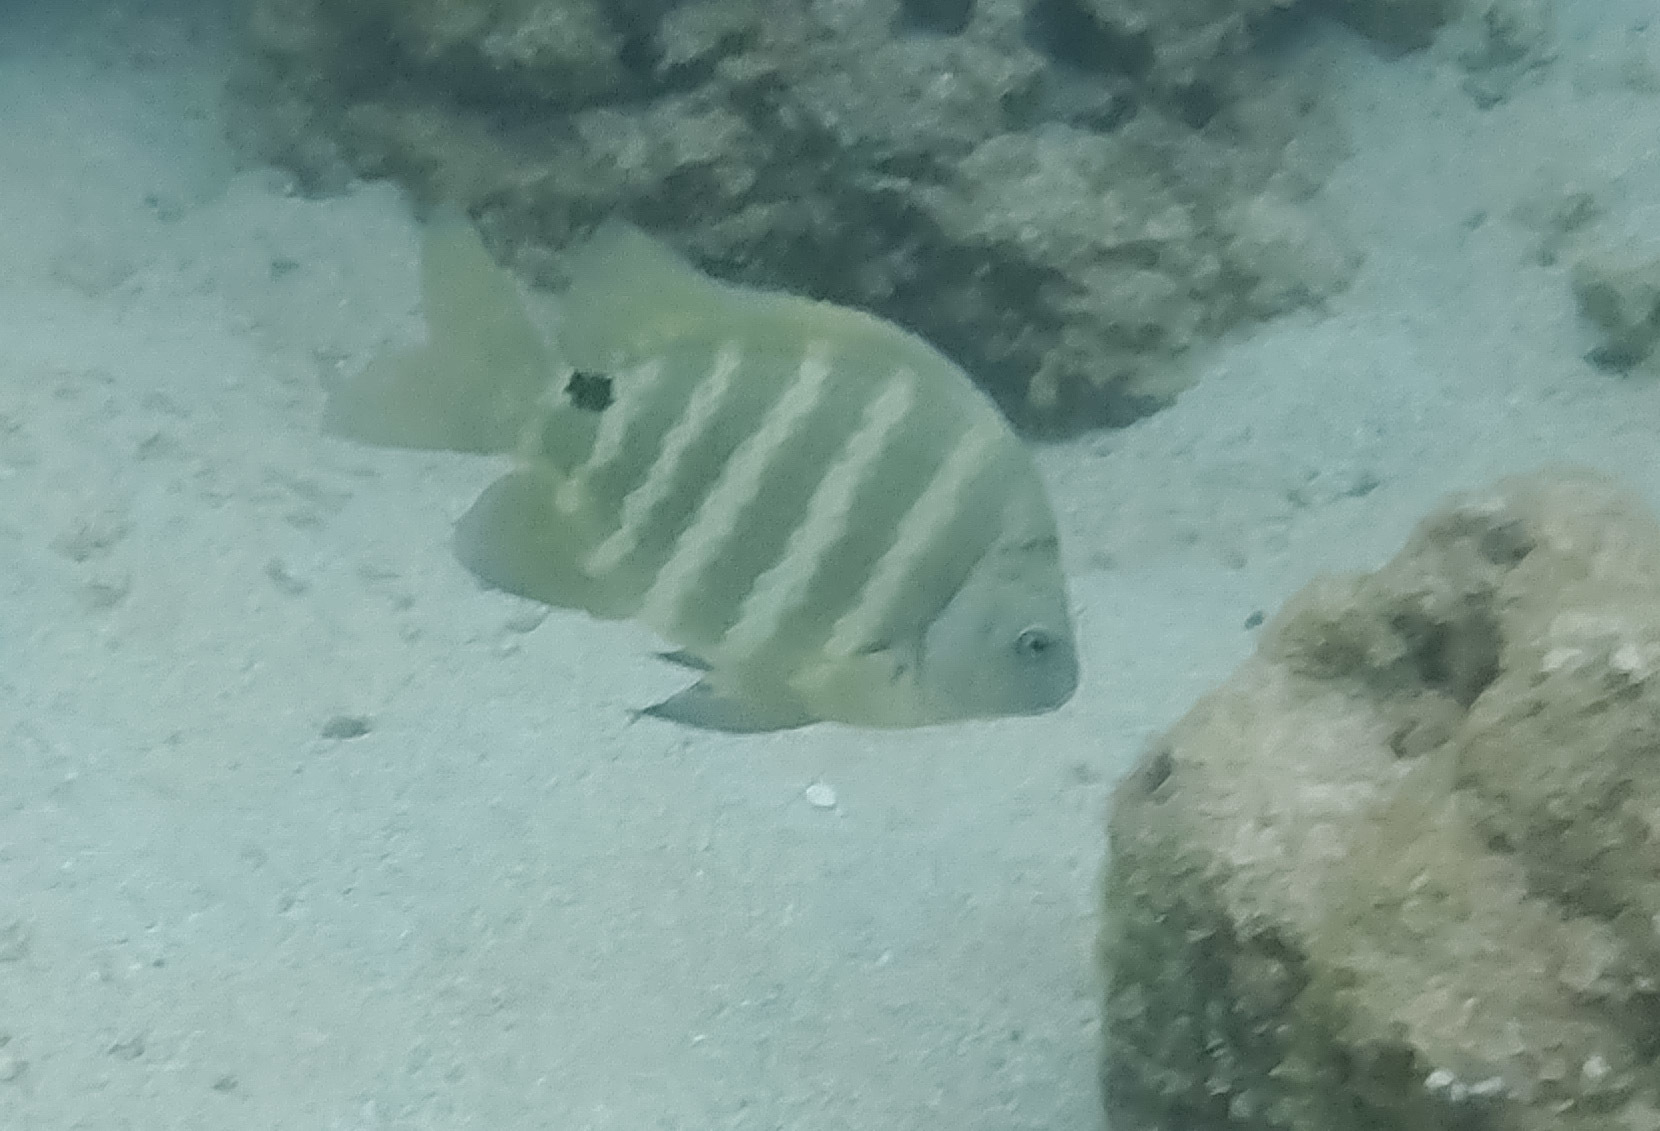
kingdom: Animalia
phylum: Chordata
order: Perciformes
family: Pomacentridae
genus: Abudefduf
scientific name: Abudefduf sordidus
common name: Blackspot sergeant
